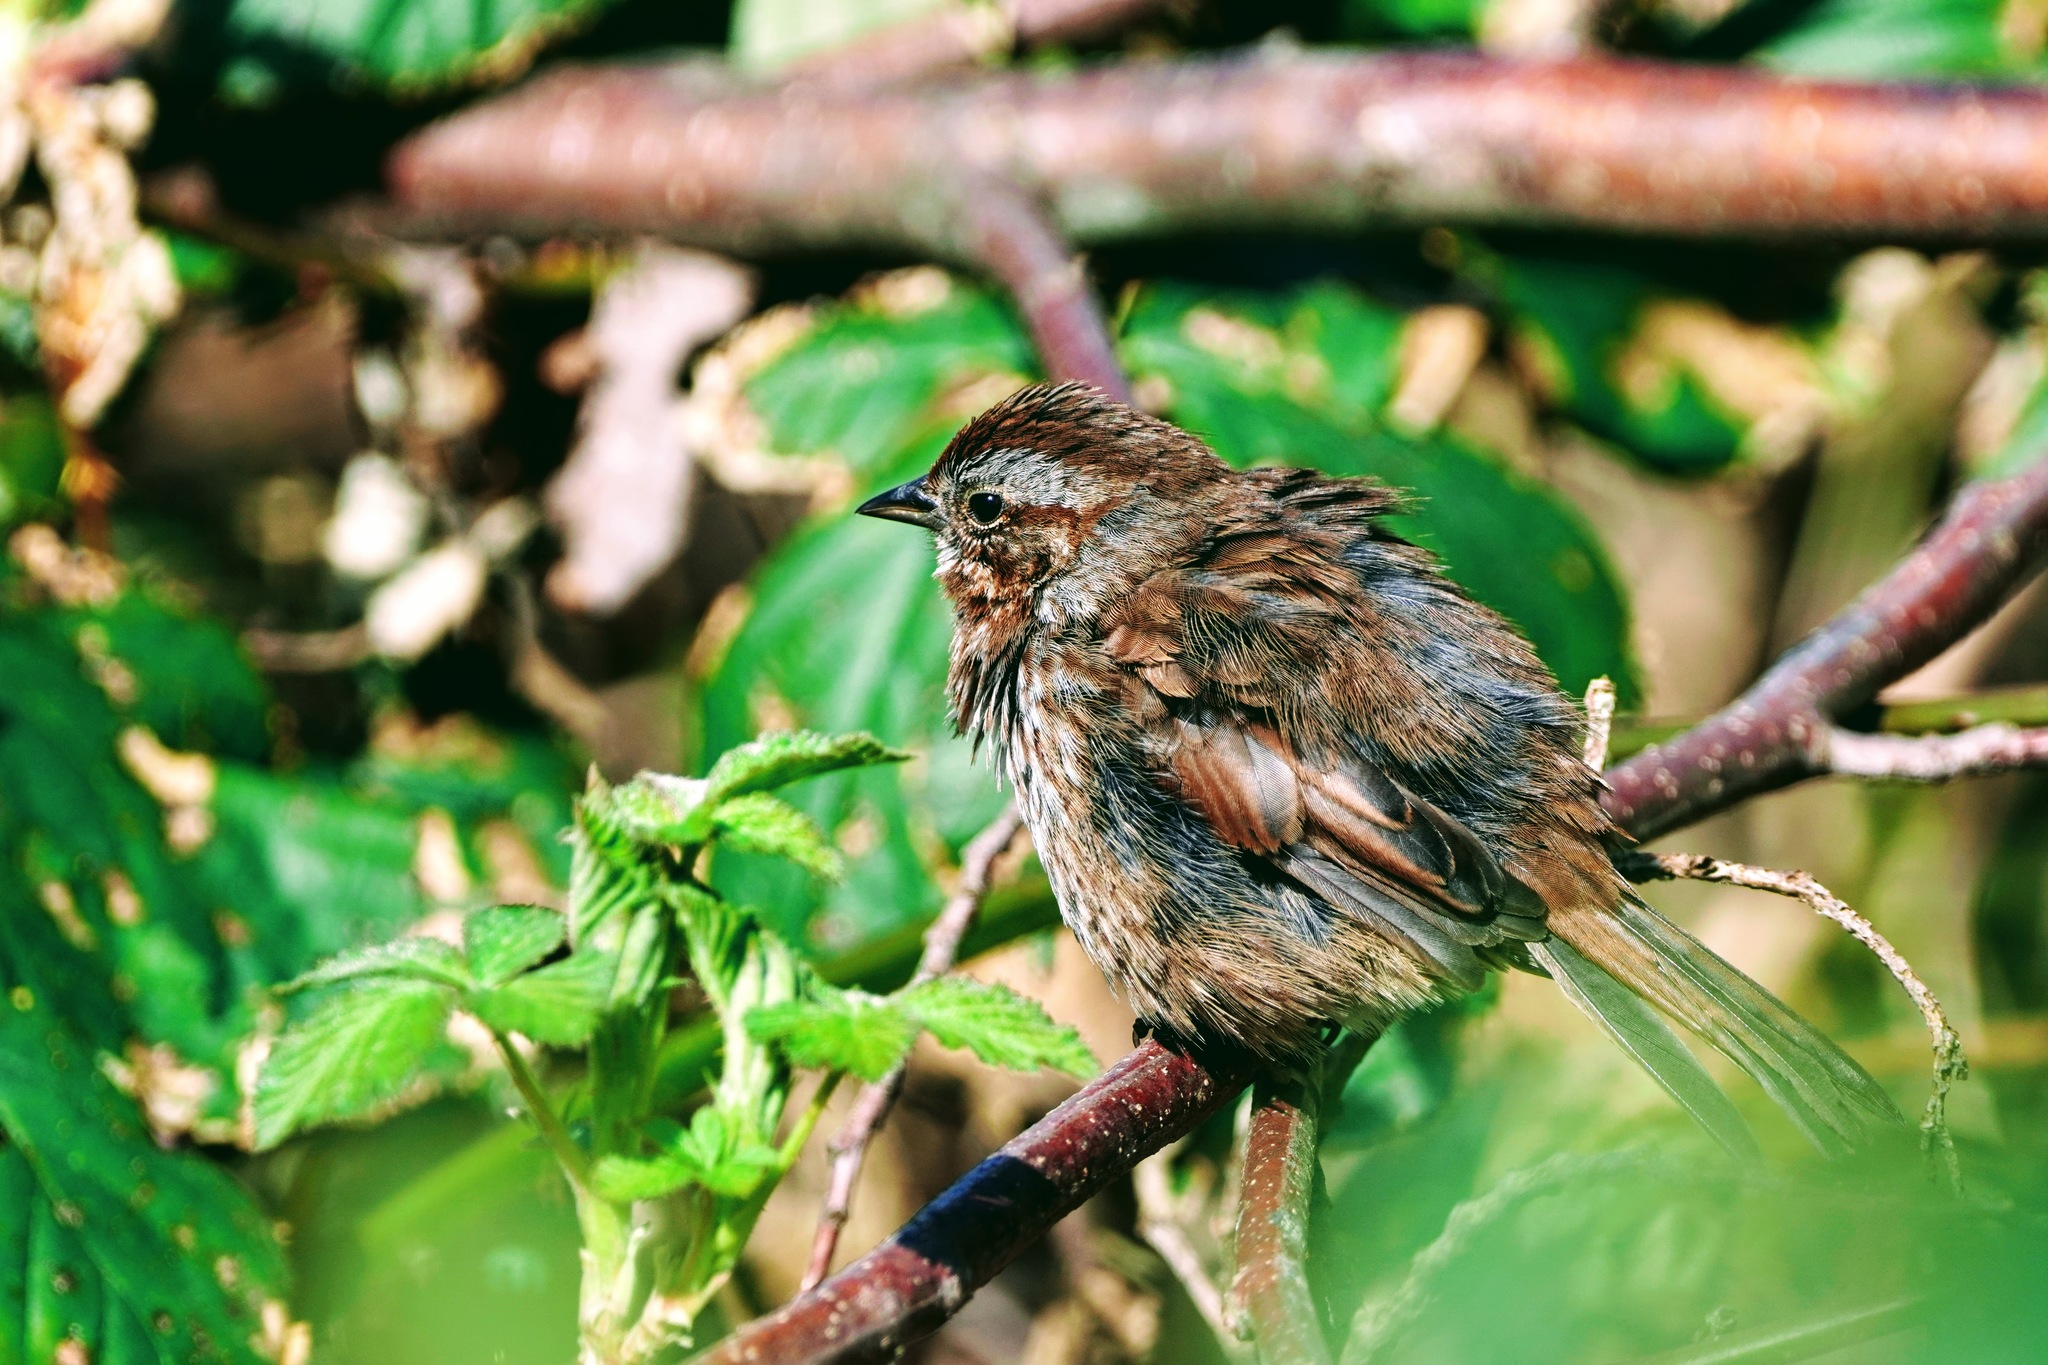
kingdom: Animalia
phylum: Chordata
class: Aves
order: Passeriformes
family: Passerellidae
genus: Melospiza
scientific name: Melospiza melodia
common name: Song sparrow
